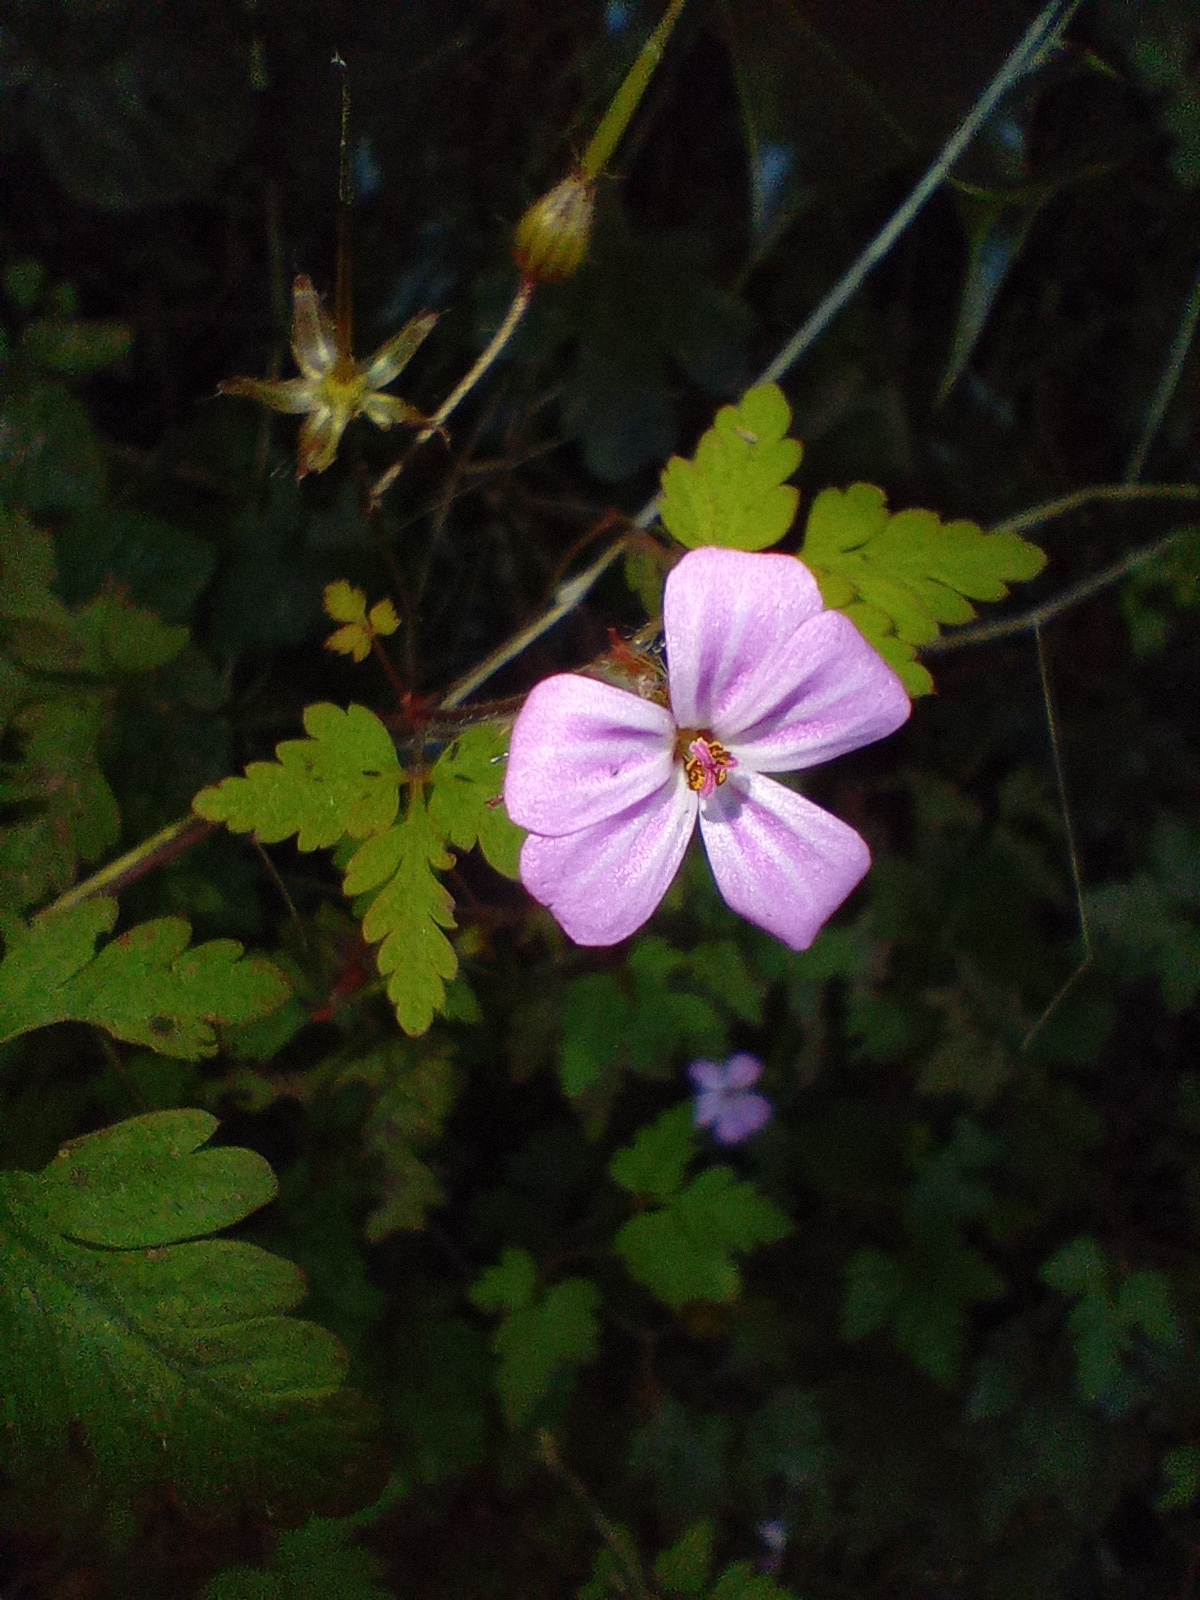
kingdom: Plantae
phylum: Tracheophyta
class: Magnoliopsida
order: Geraniales
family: Geraniaceae
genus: Geranium
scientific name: Geranium robertianum
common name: Herb-robert
